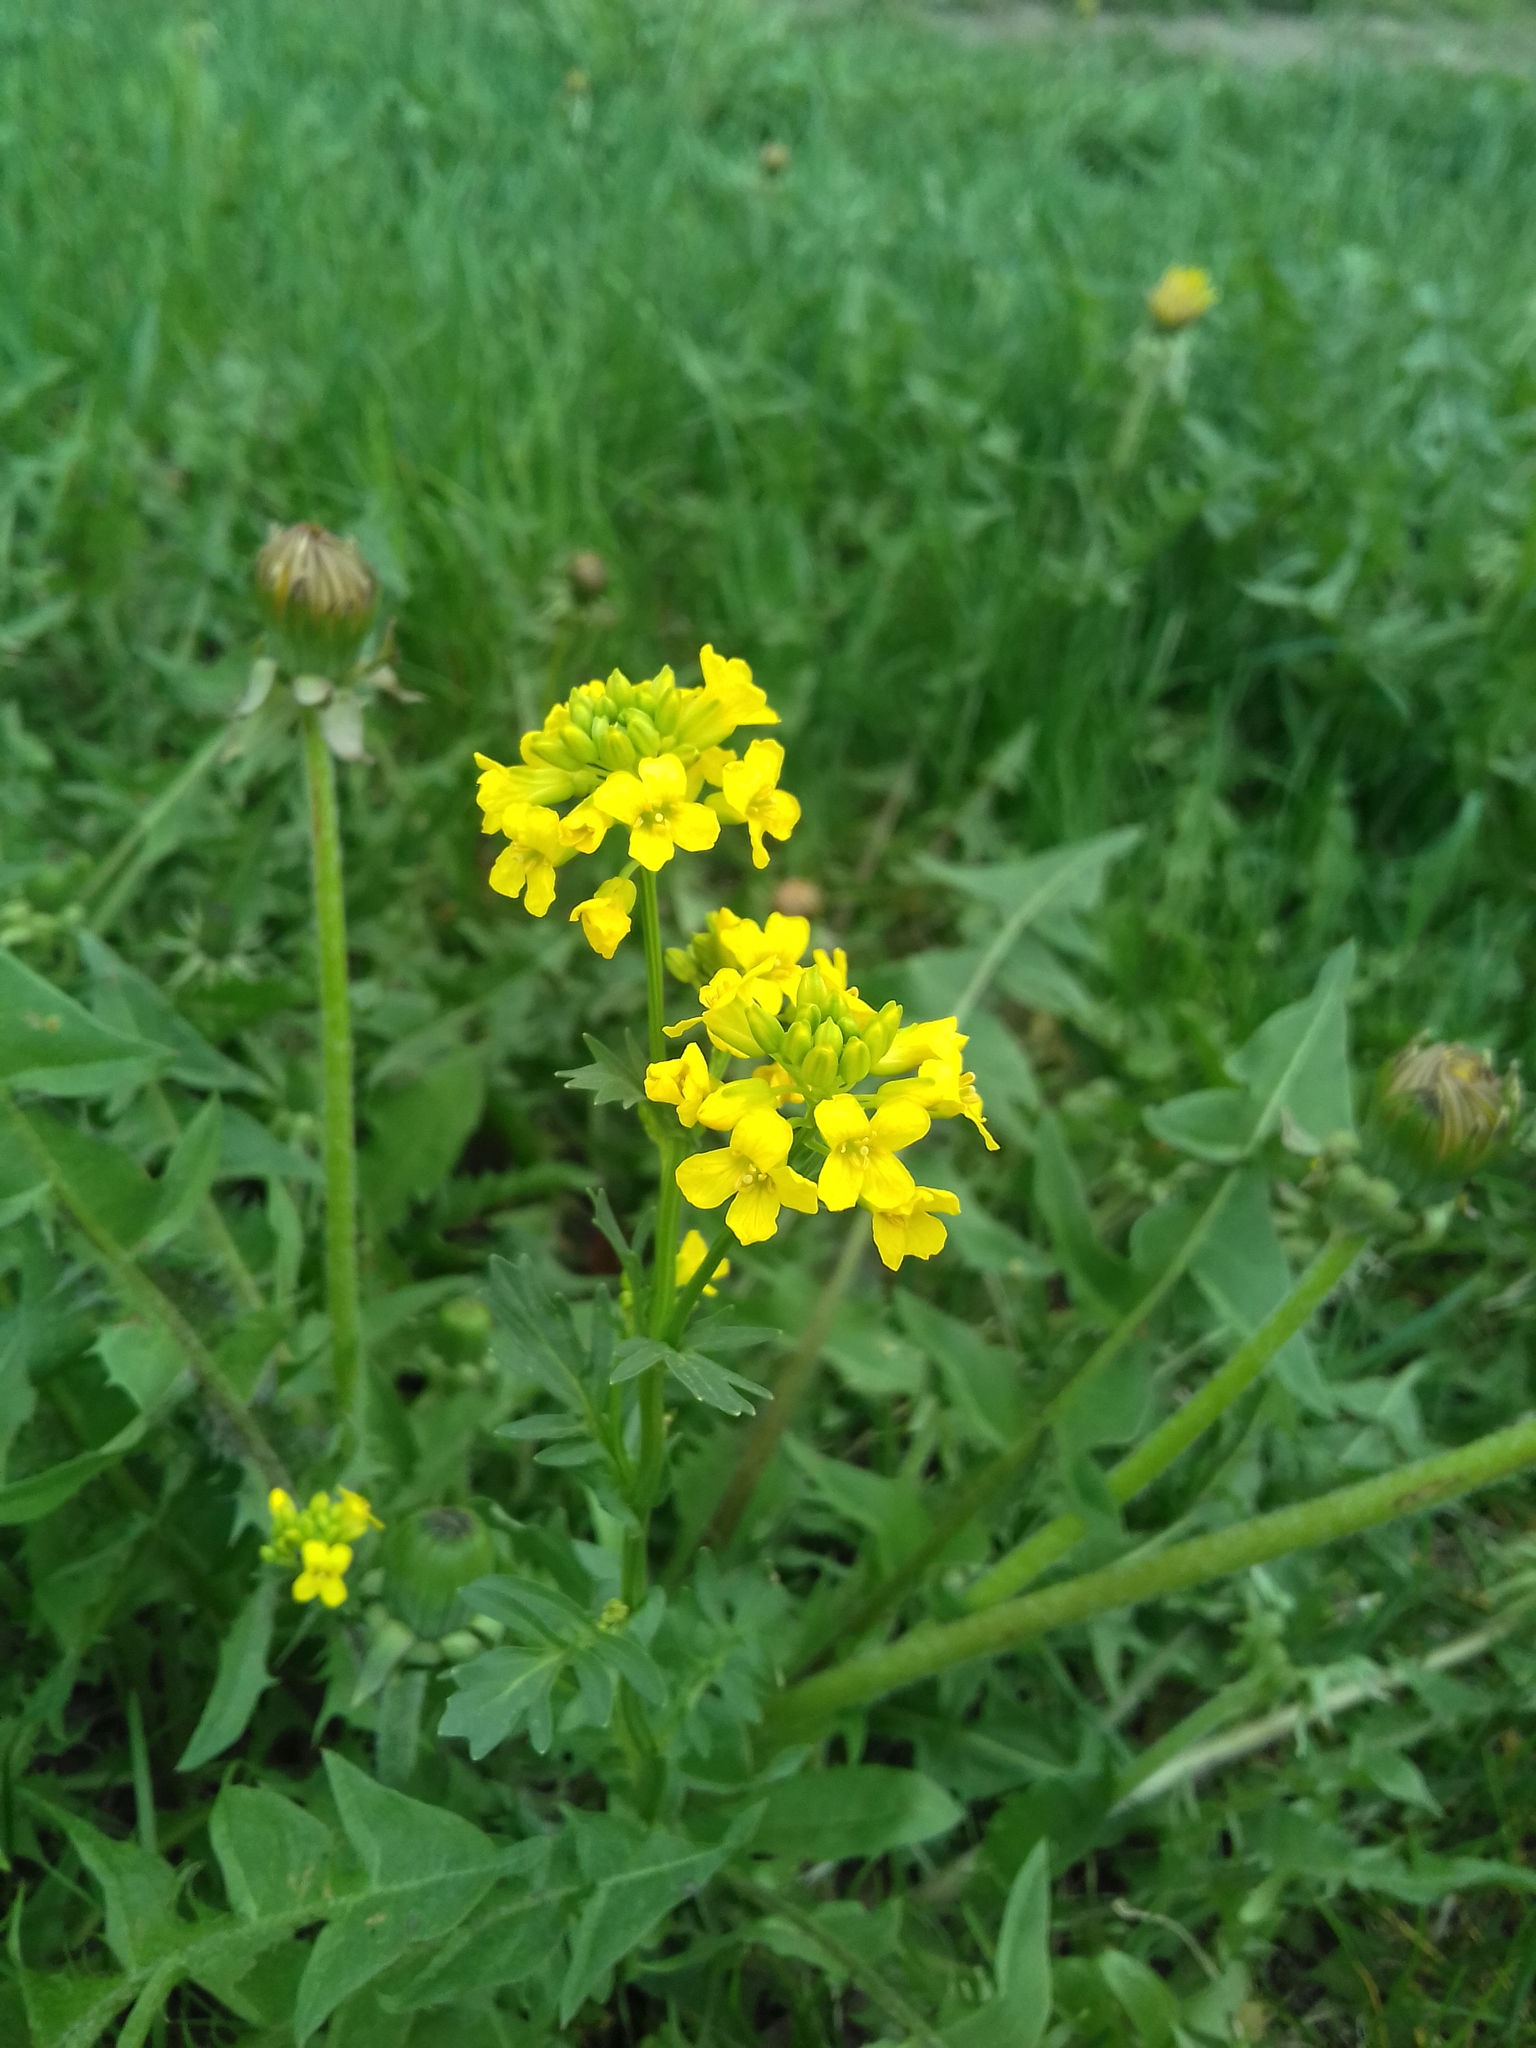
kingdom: Plantae
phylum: Tracheophyta
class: Magnoliopsida
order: Brassicales
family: Brassicaceae
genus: Barbarea
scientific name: Barbarea vulgaris
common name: Cressy-greens
